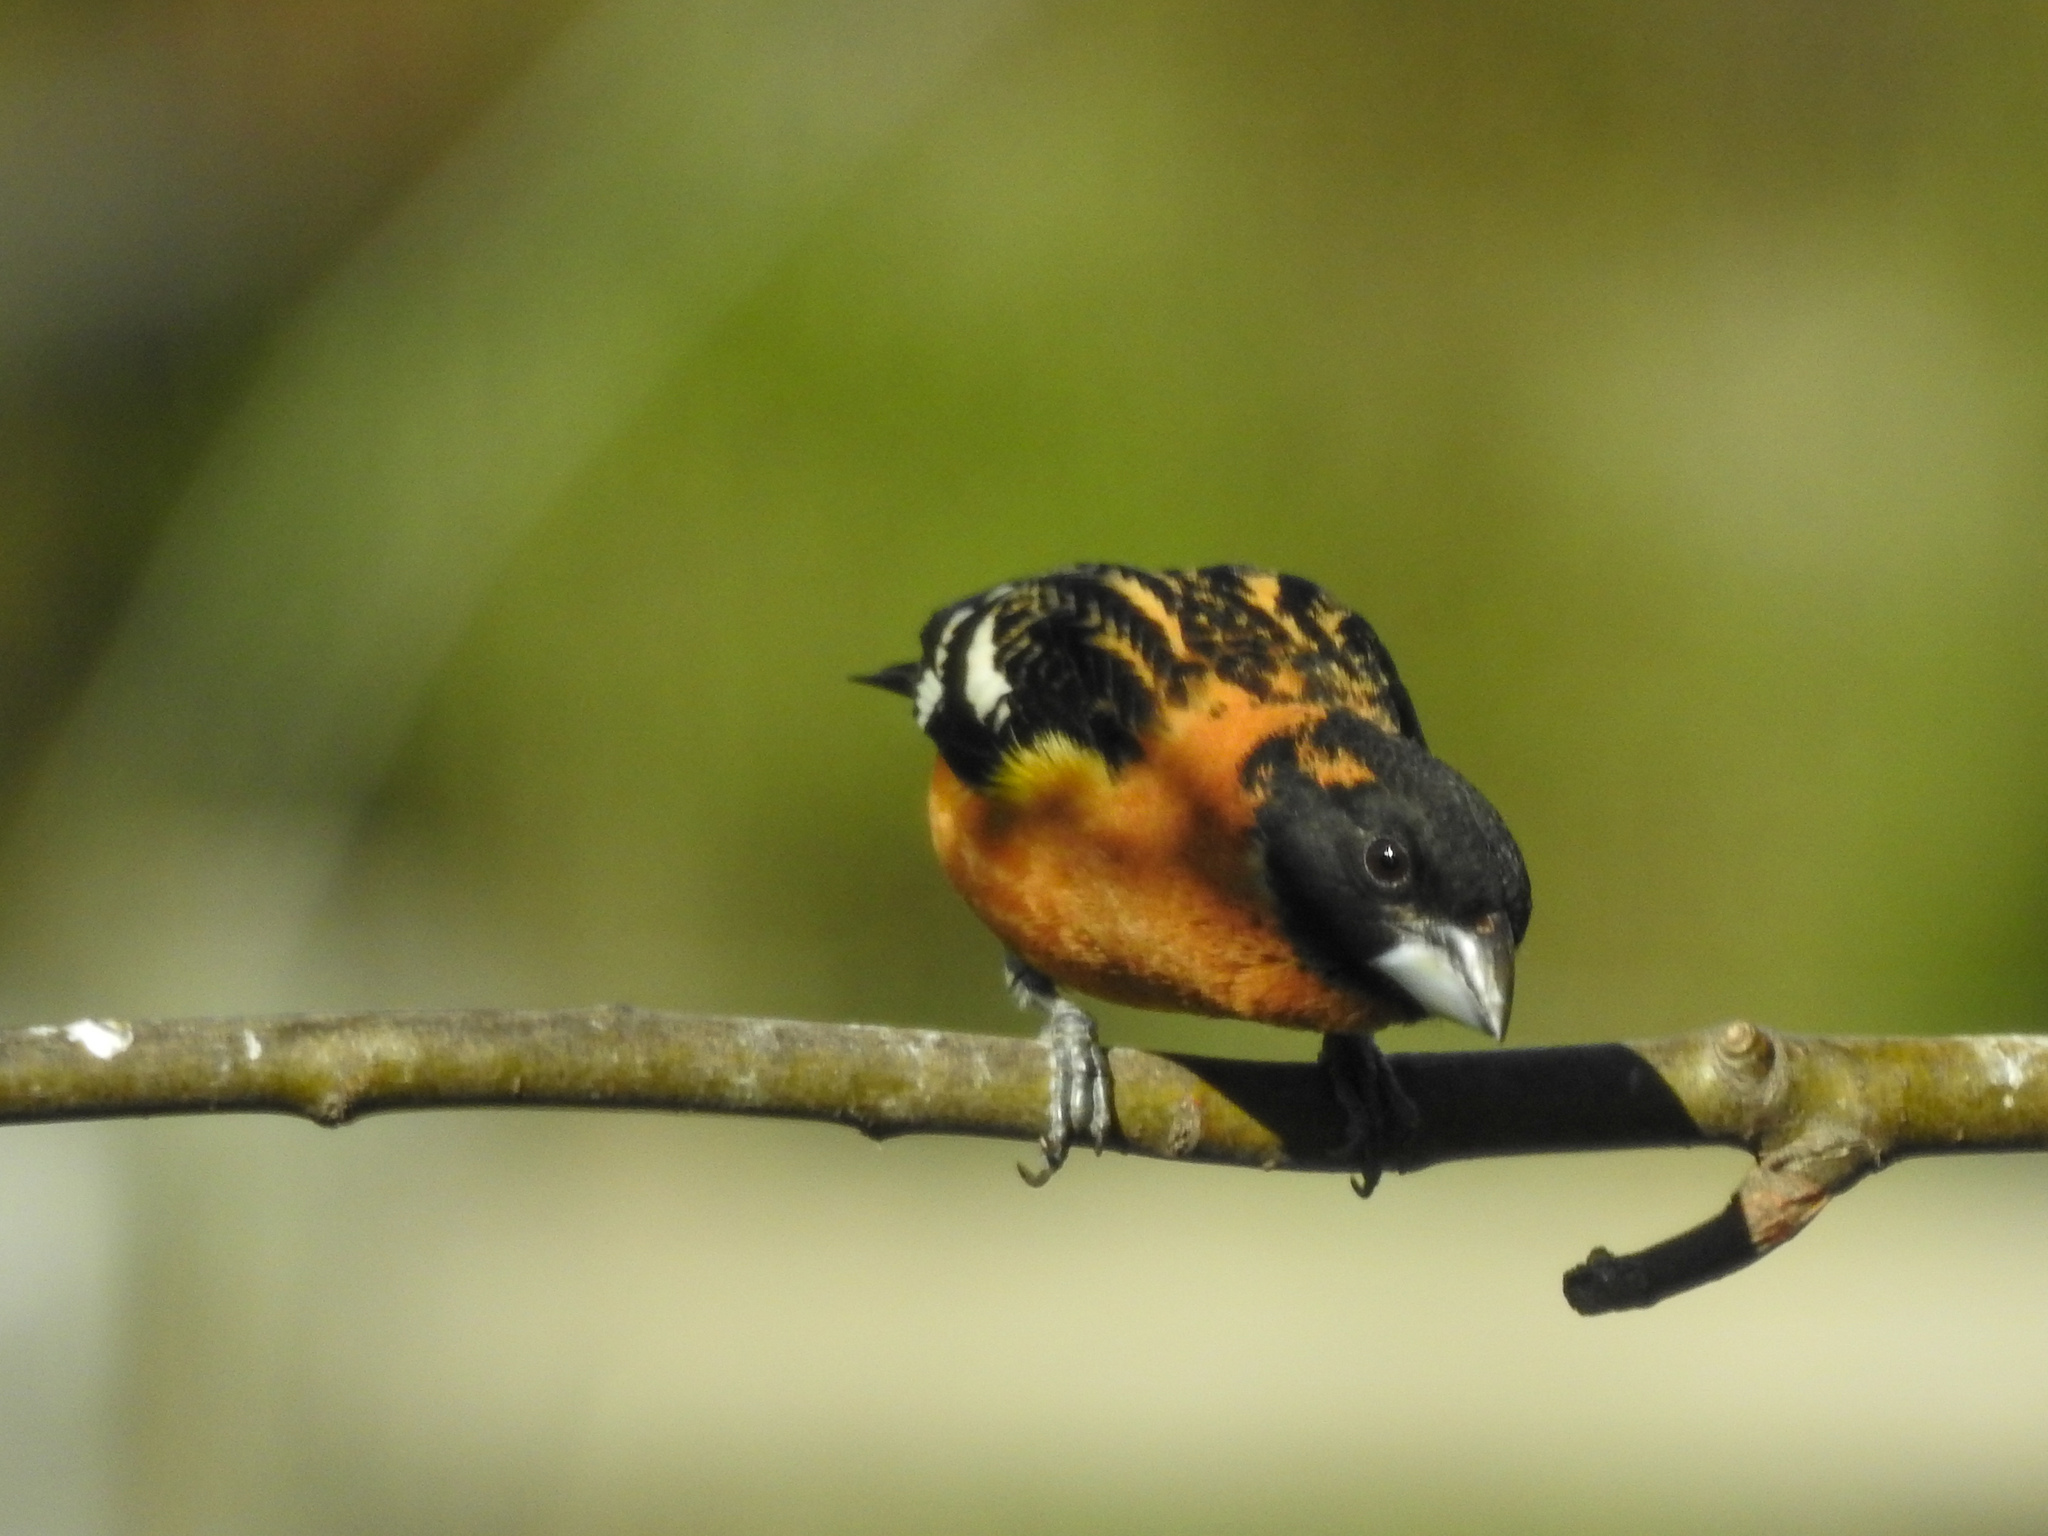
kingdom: Animalia
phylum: Chordata
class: Aves
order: Passeriformes
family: Cardinalidae
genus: Pheucticus
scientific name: Pheucticus melanocephalus
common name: Black-headed grosbeak
